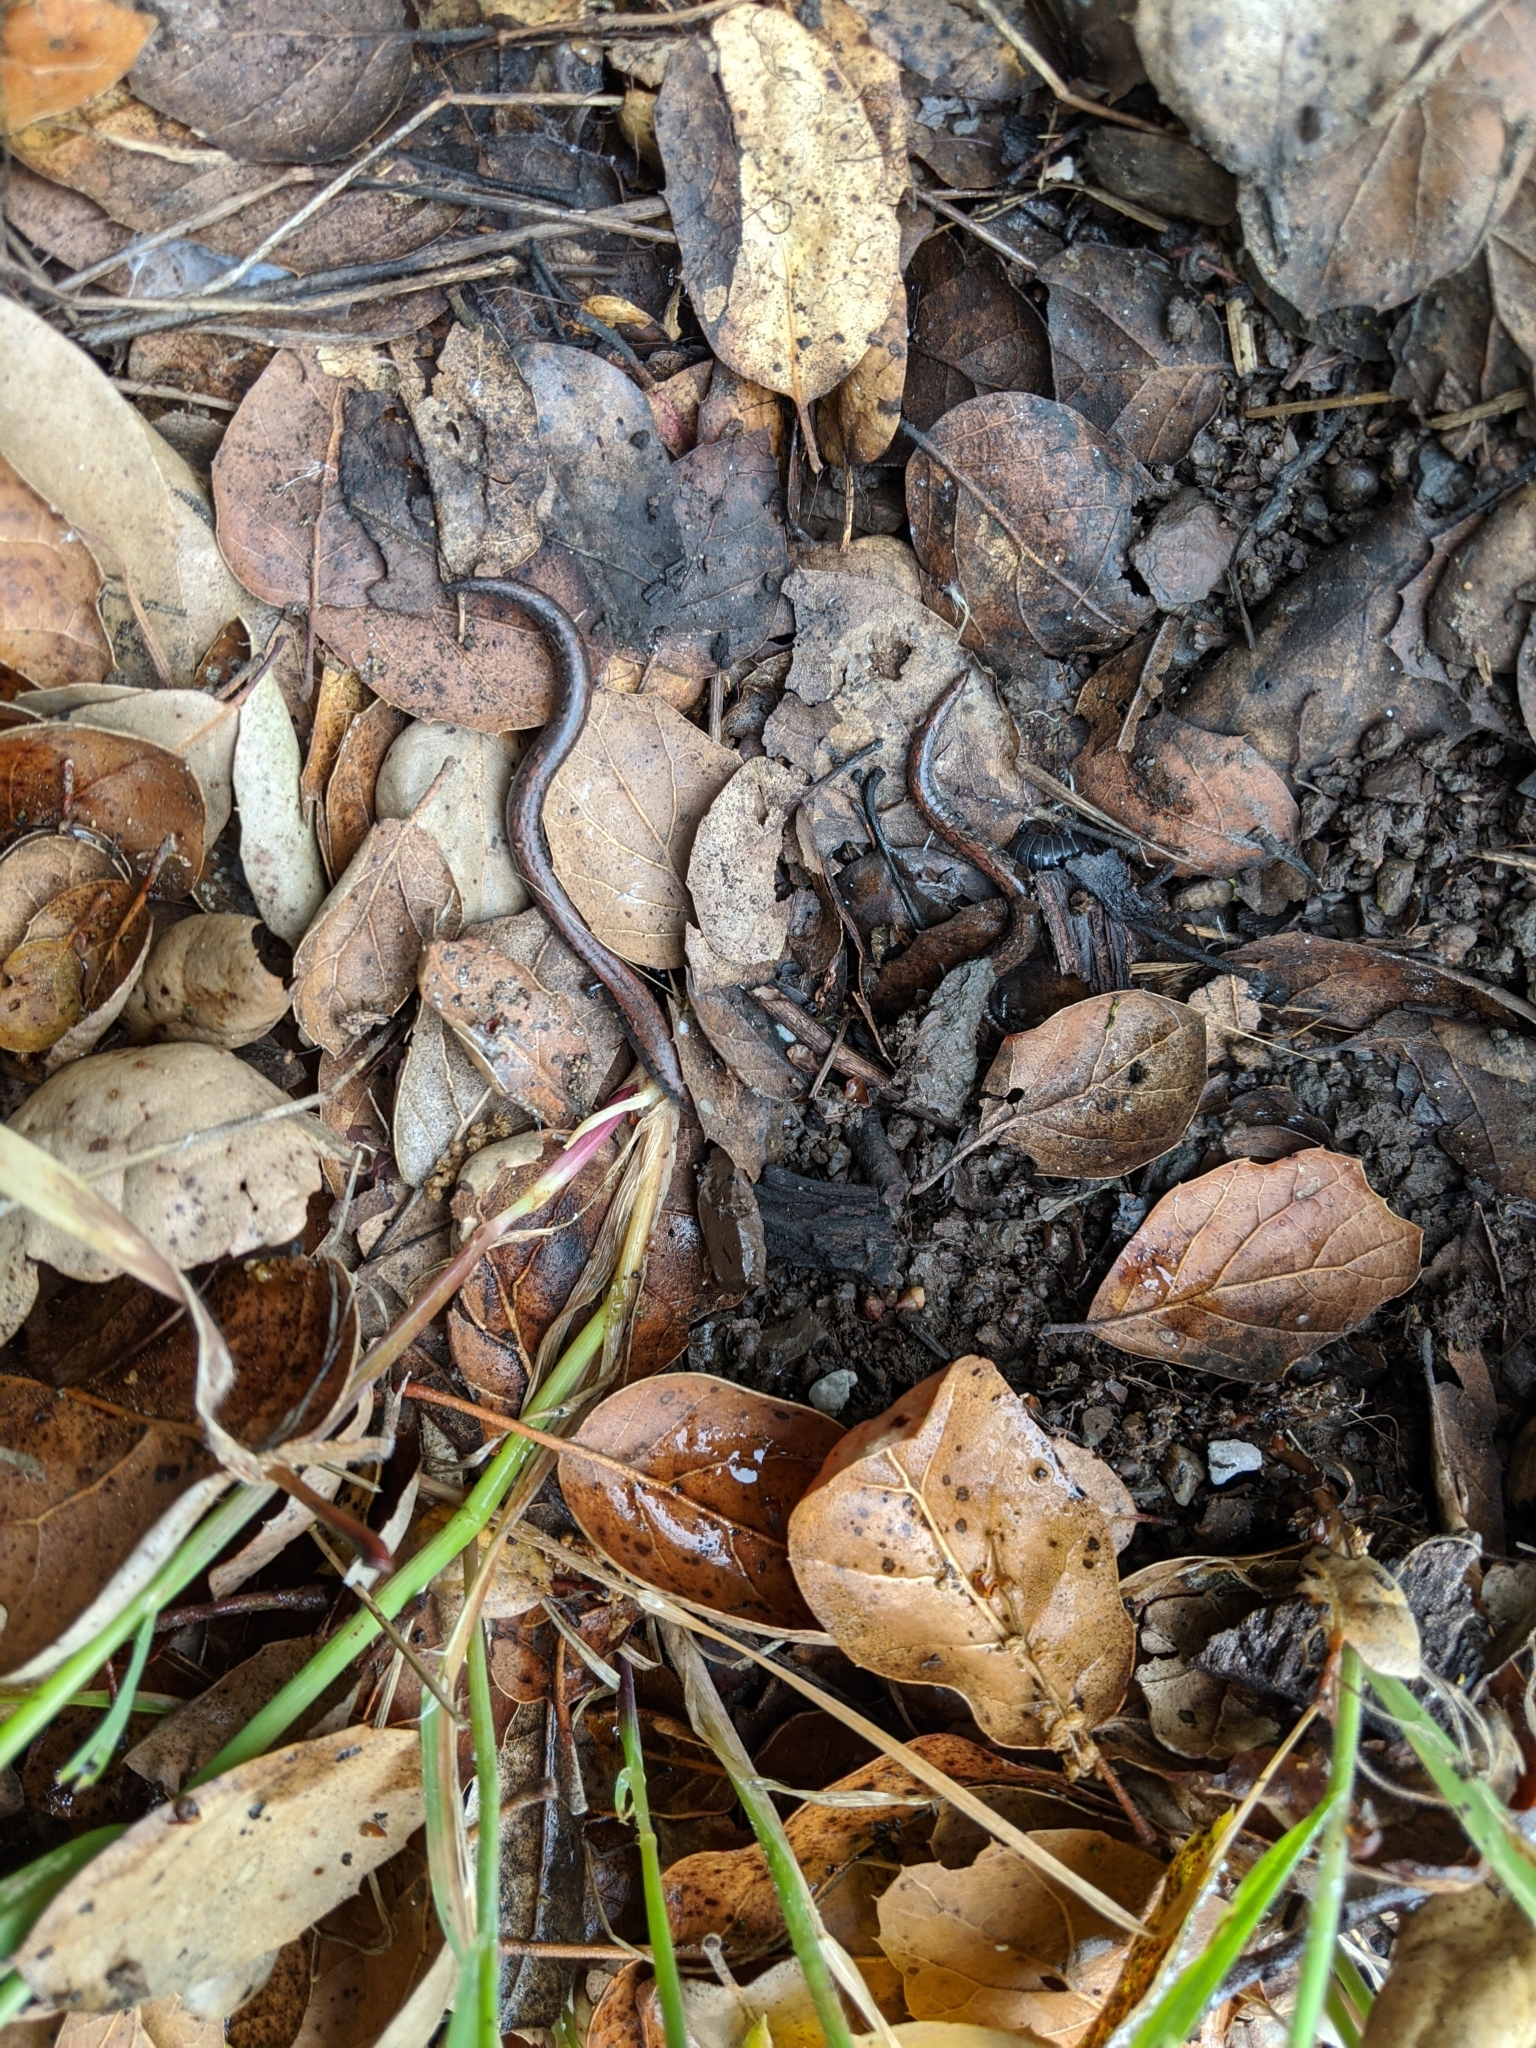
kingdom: Animalia
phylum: Chordata
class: Amphibia
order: Caudata
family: Plethodontidae
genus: Batrachoseps
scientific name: Batrachoseps nigriventris
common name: Black-bellied slender salamander
